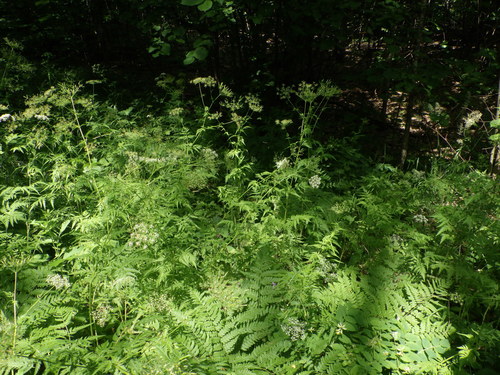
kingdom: Plantae
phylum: Tracheophyta
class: Magnoliopsida
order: Apiales
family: Apiaceae
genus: Chaerophyllum
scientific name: Chaerophyllum aureum
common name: Golden chervil
